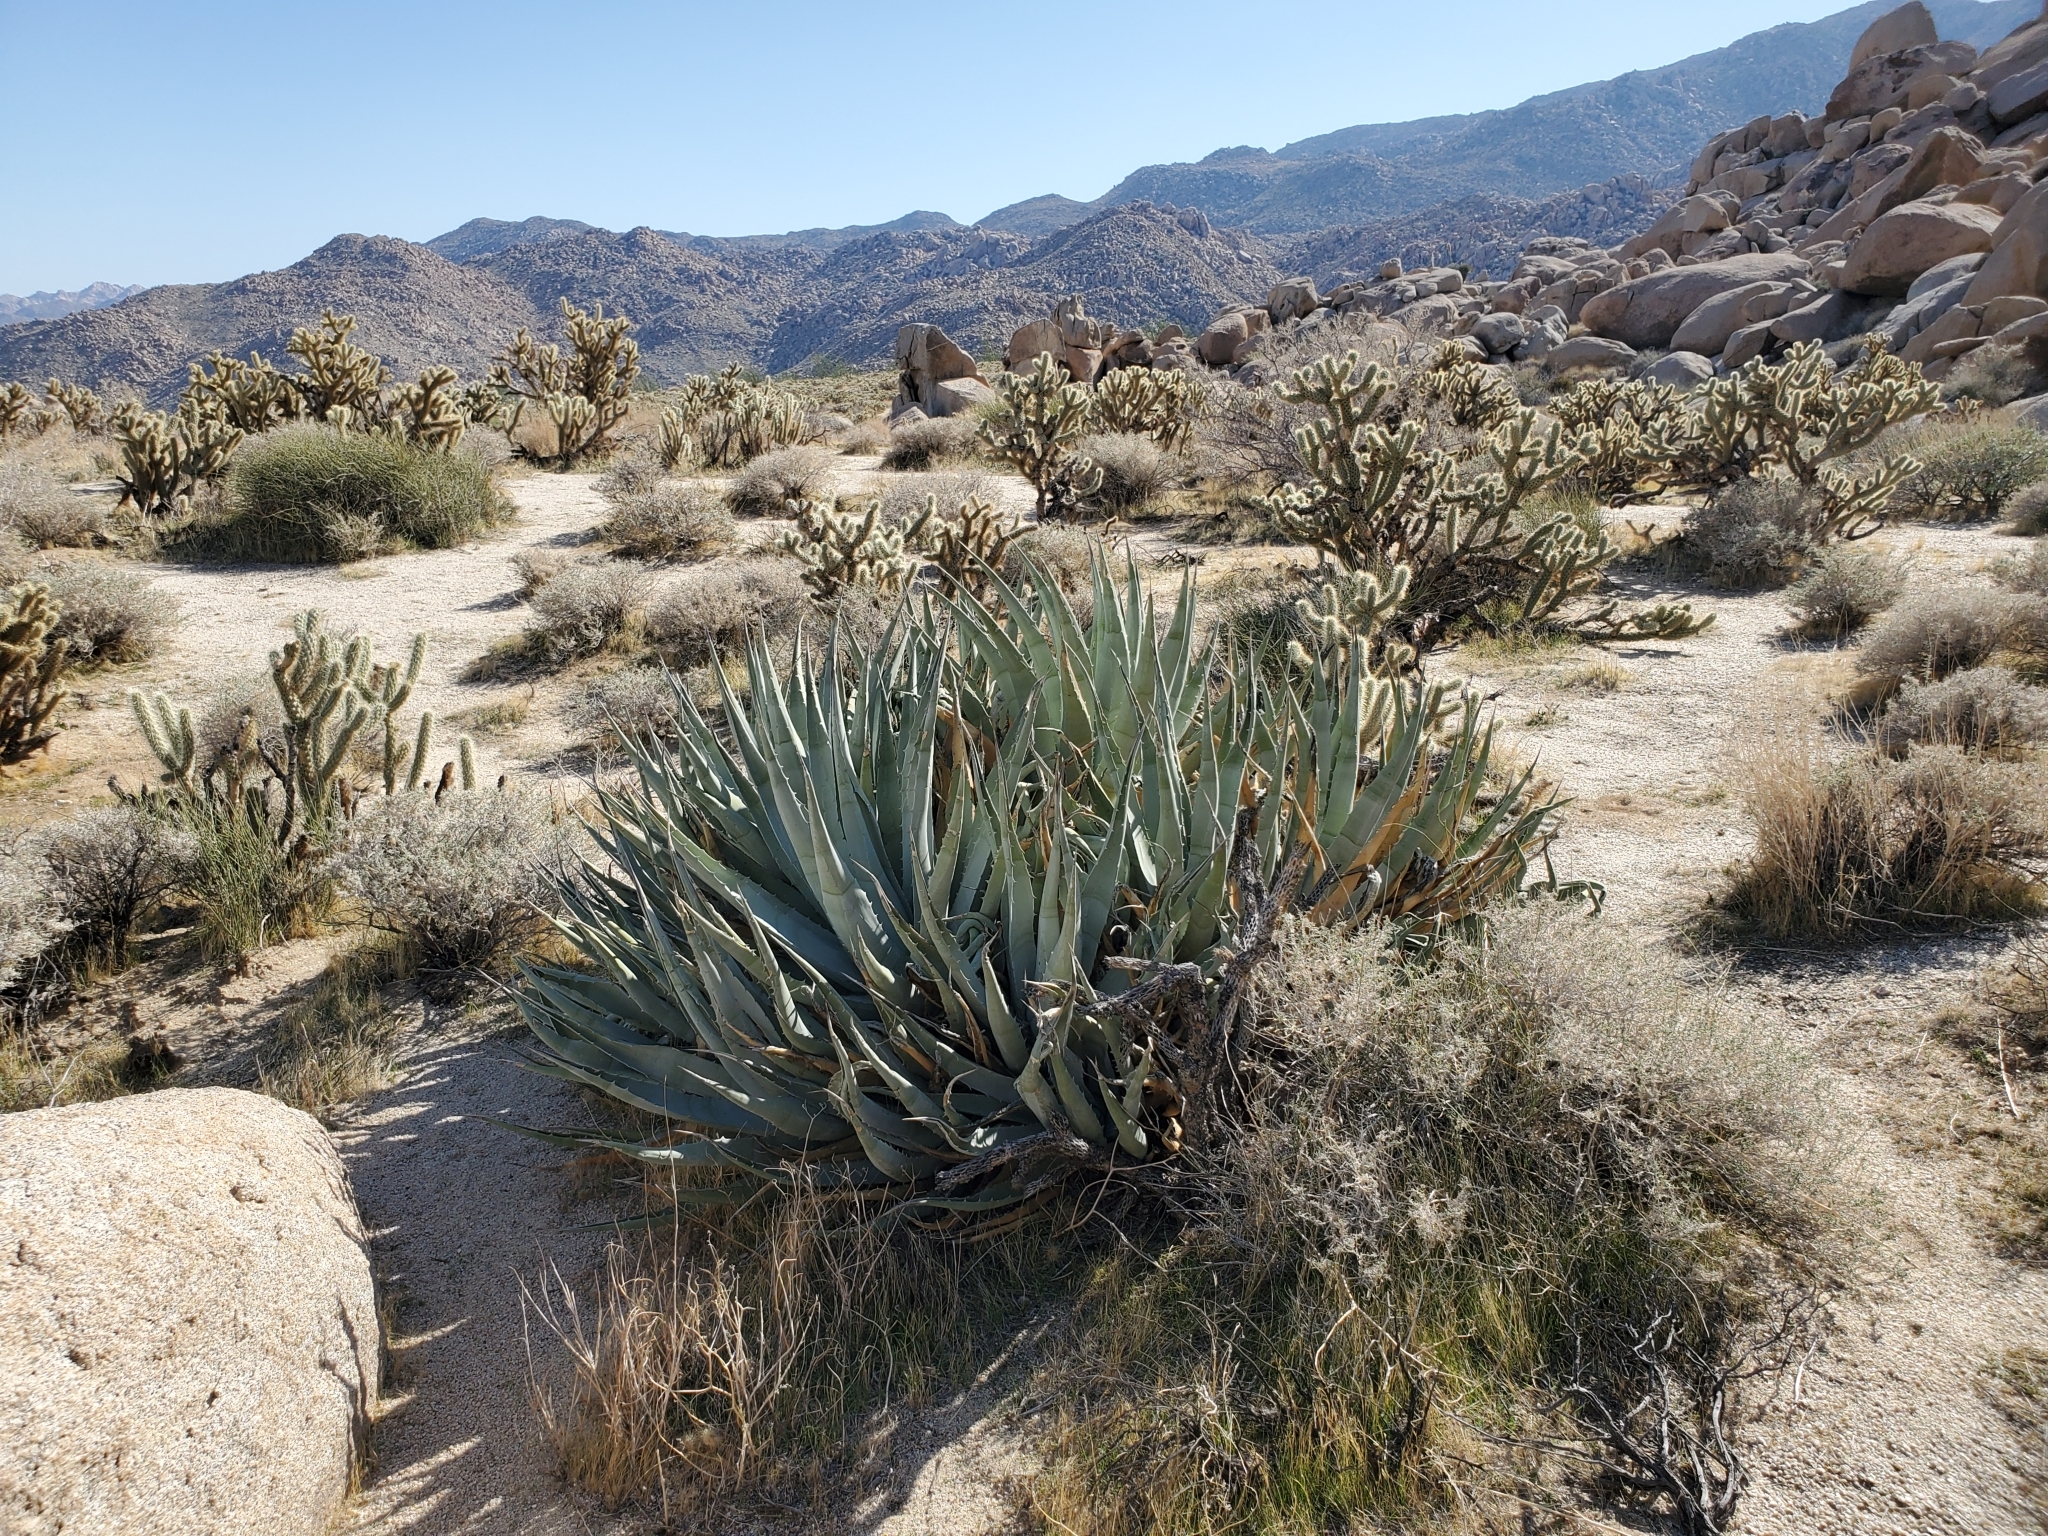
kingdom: Plantae
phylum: Tracheophyta
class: Liliopsida
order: Asparagales
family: Asparagaceae
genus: Agave
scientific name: Agave deserti
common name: Desert agave
